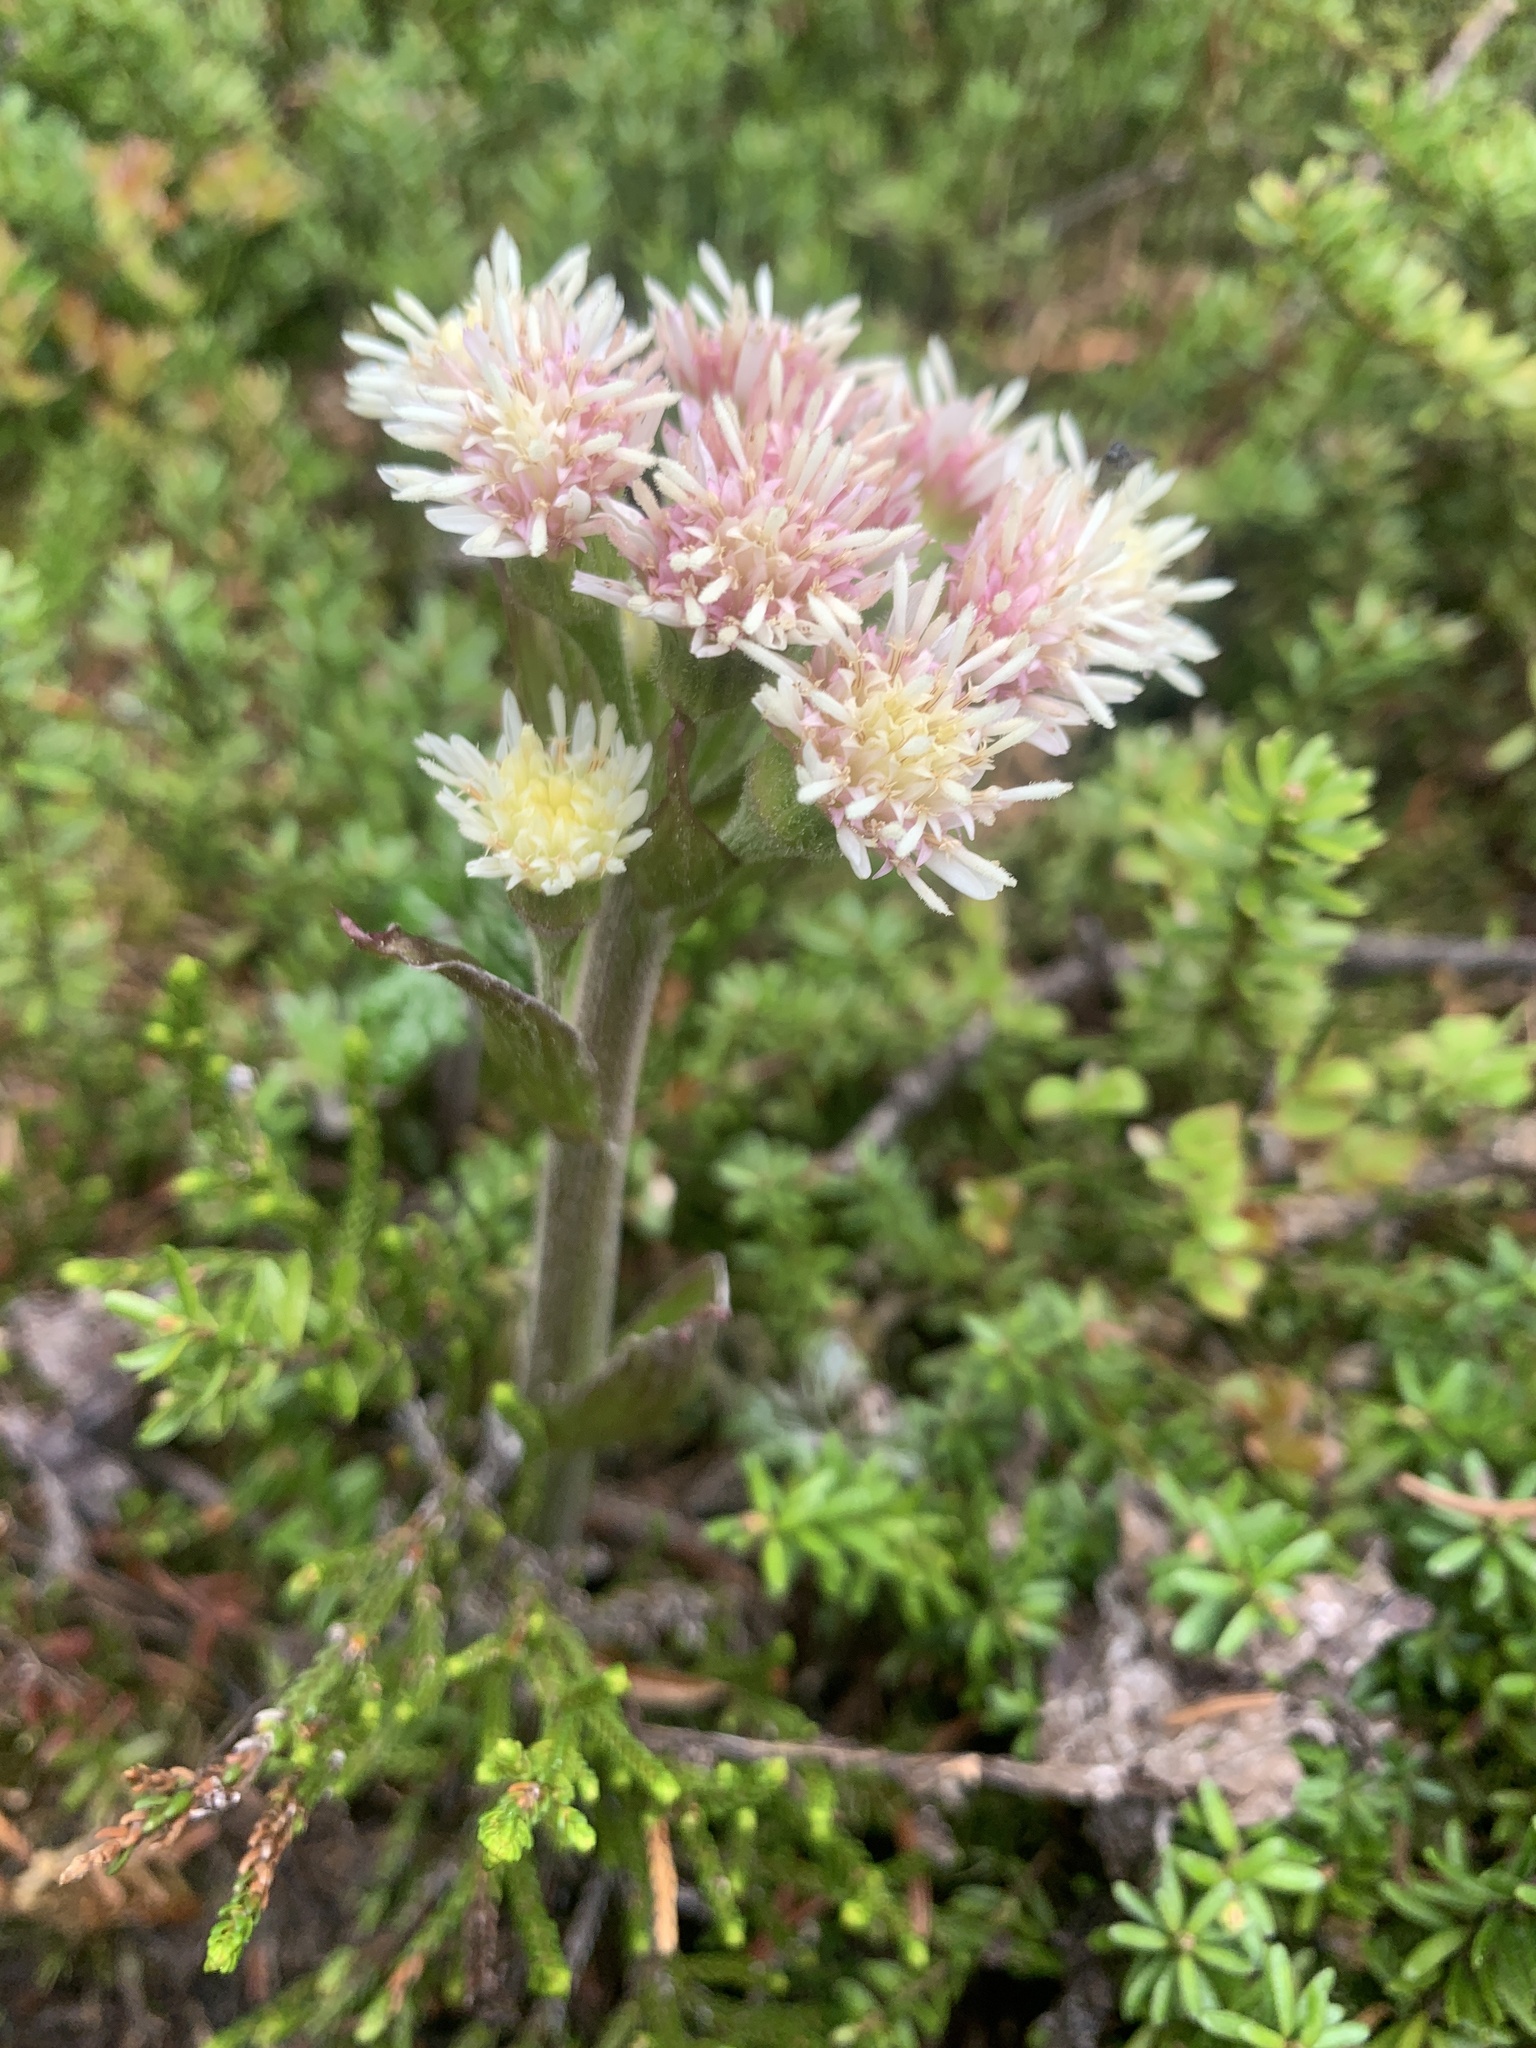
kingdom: Plantae
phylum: Tracheophyta
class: Magnoliopsida
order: Asterales
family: Asteraceae
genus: Petasites
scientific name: Petasites frigidus
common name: Arctic butterbur
